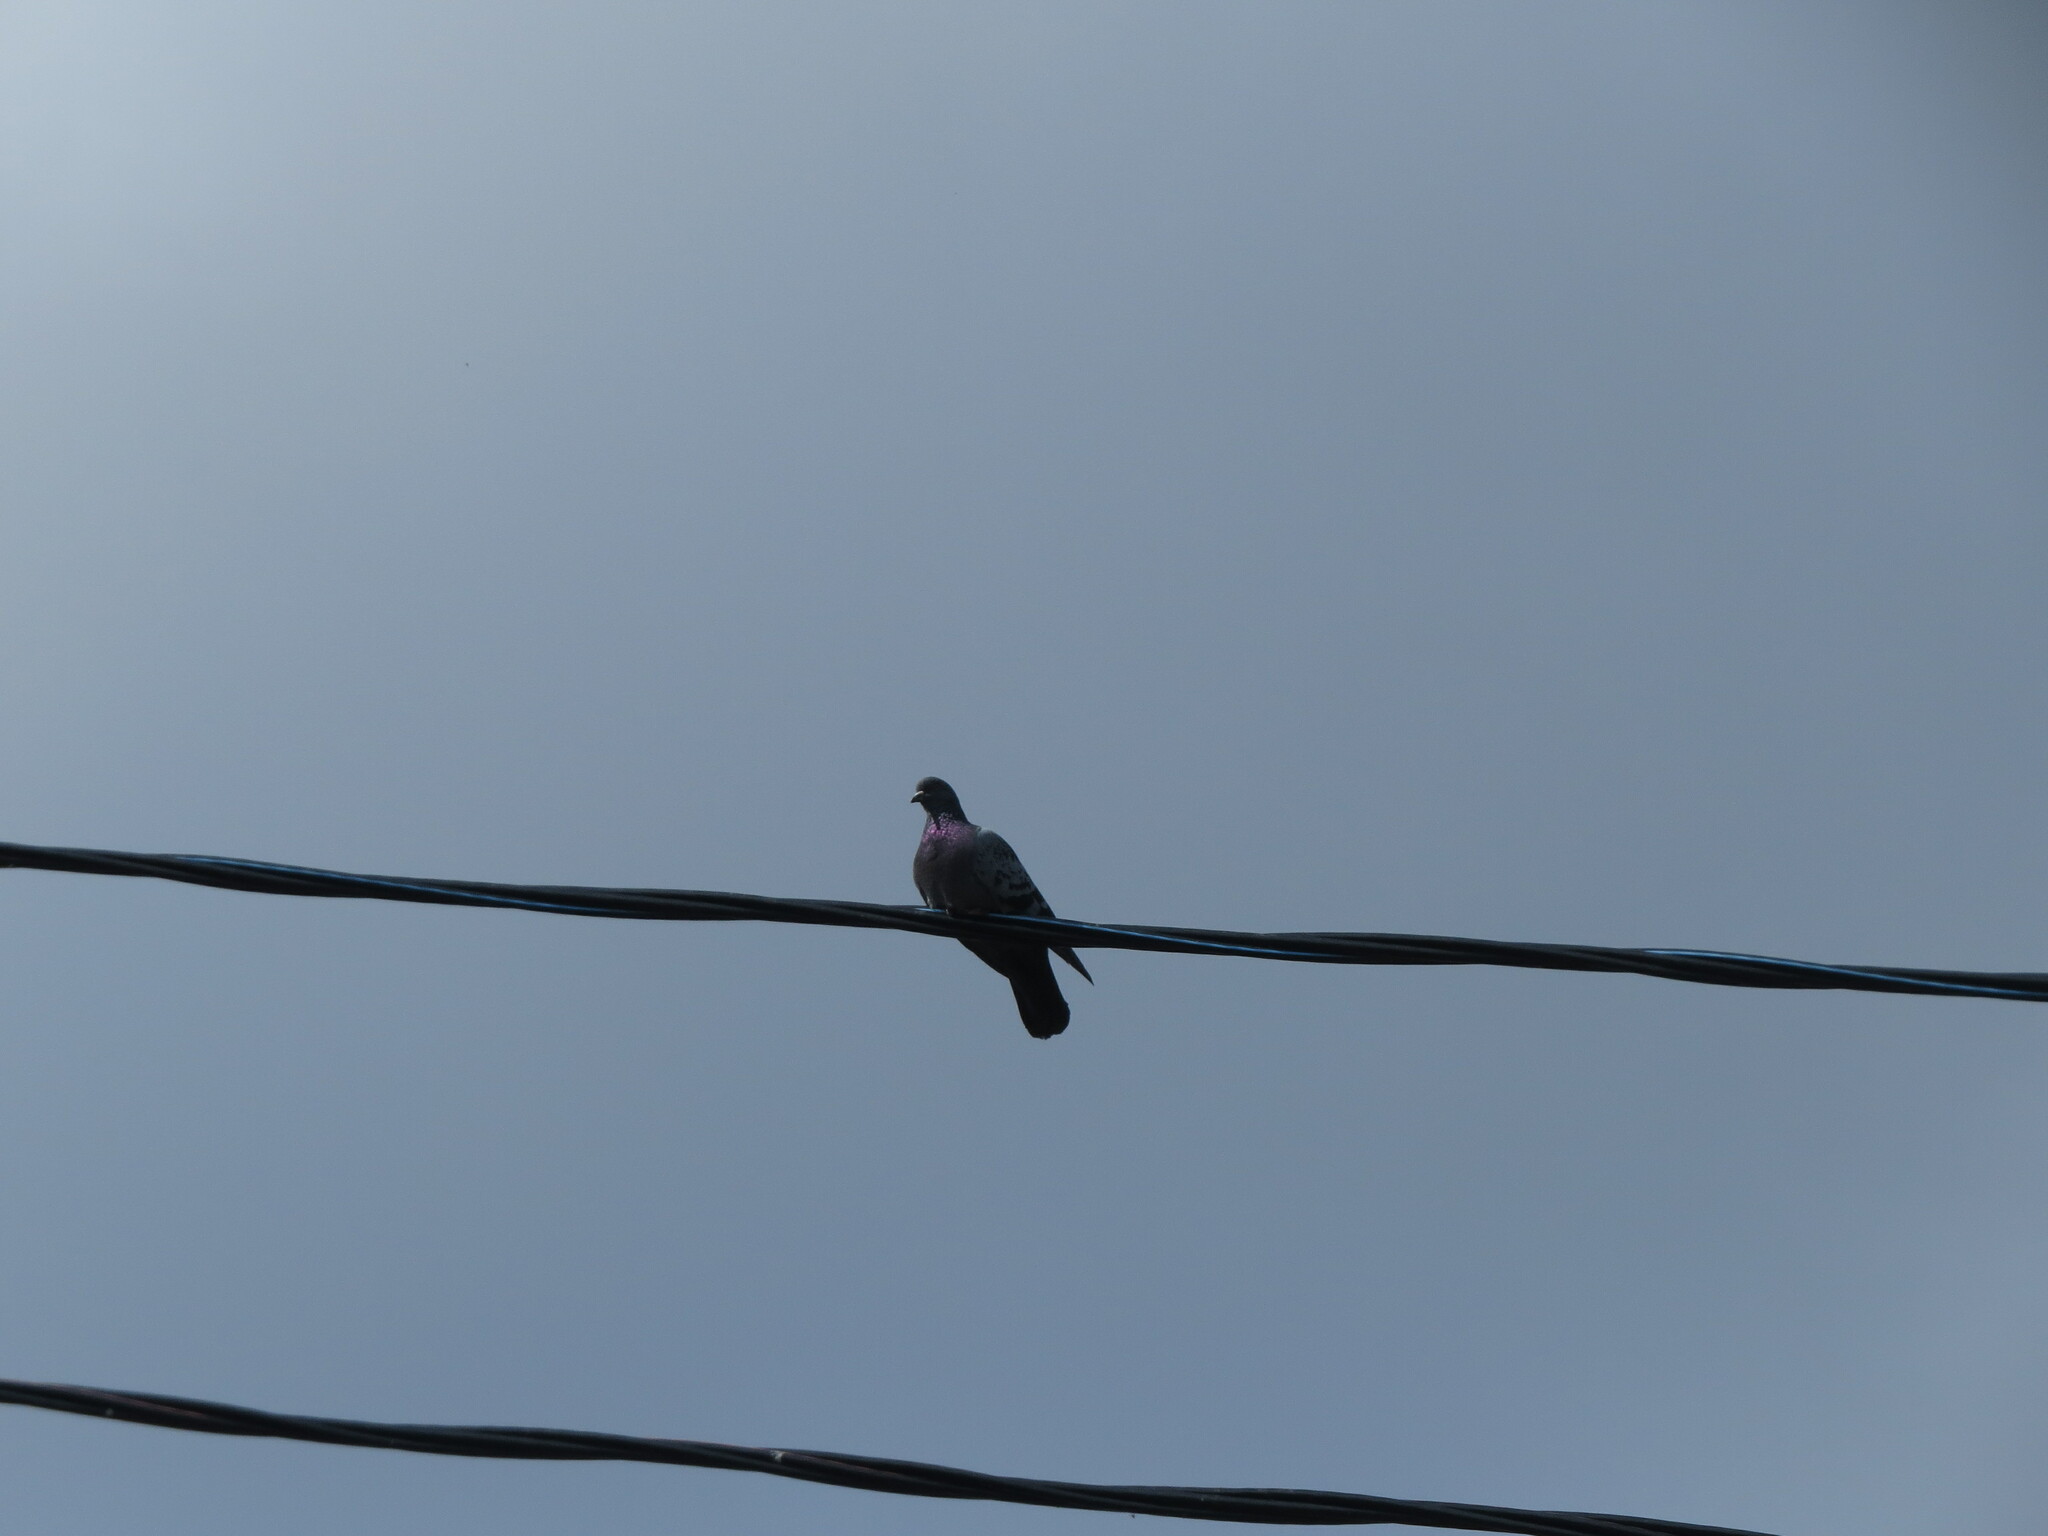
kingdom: Animalia
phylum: Chordata
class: Aves
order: Columbiformes
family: Columbidae
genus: Columba
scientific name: Columba livia
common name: Rock pigeon
